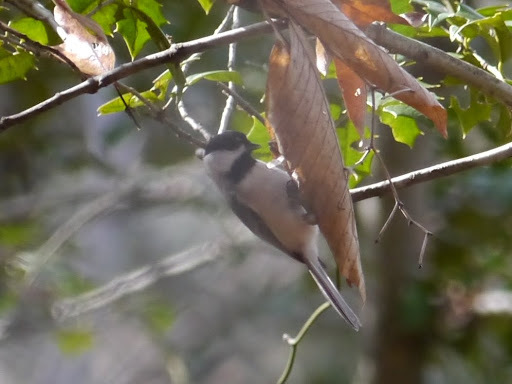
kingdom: Animalia
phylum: Chordata
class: Aves
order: Passeriformes
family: Paridae
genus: Poecile
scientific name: Poecile carolinensis
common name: Carolina chickadee
